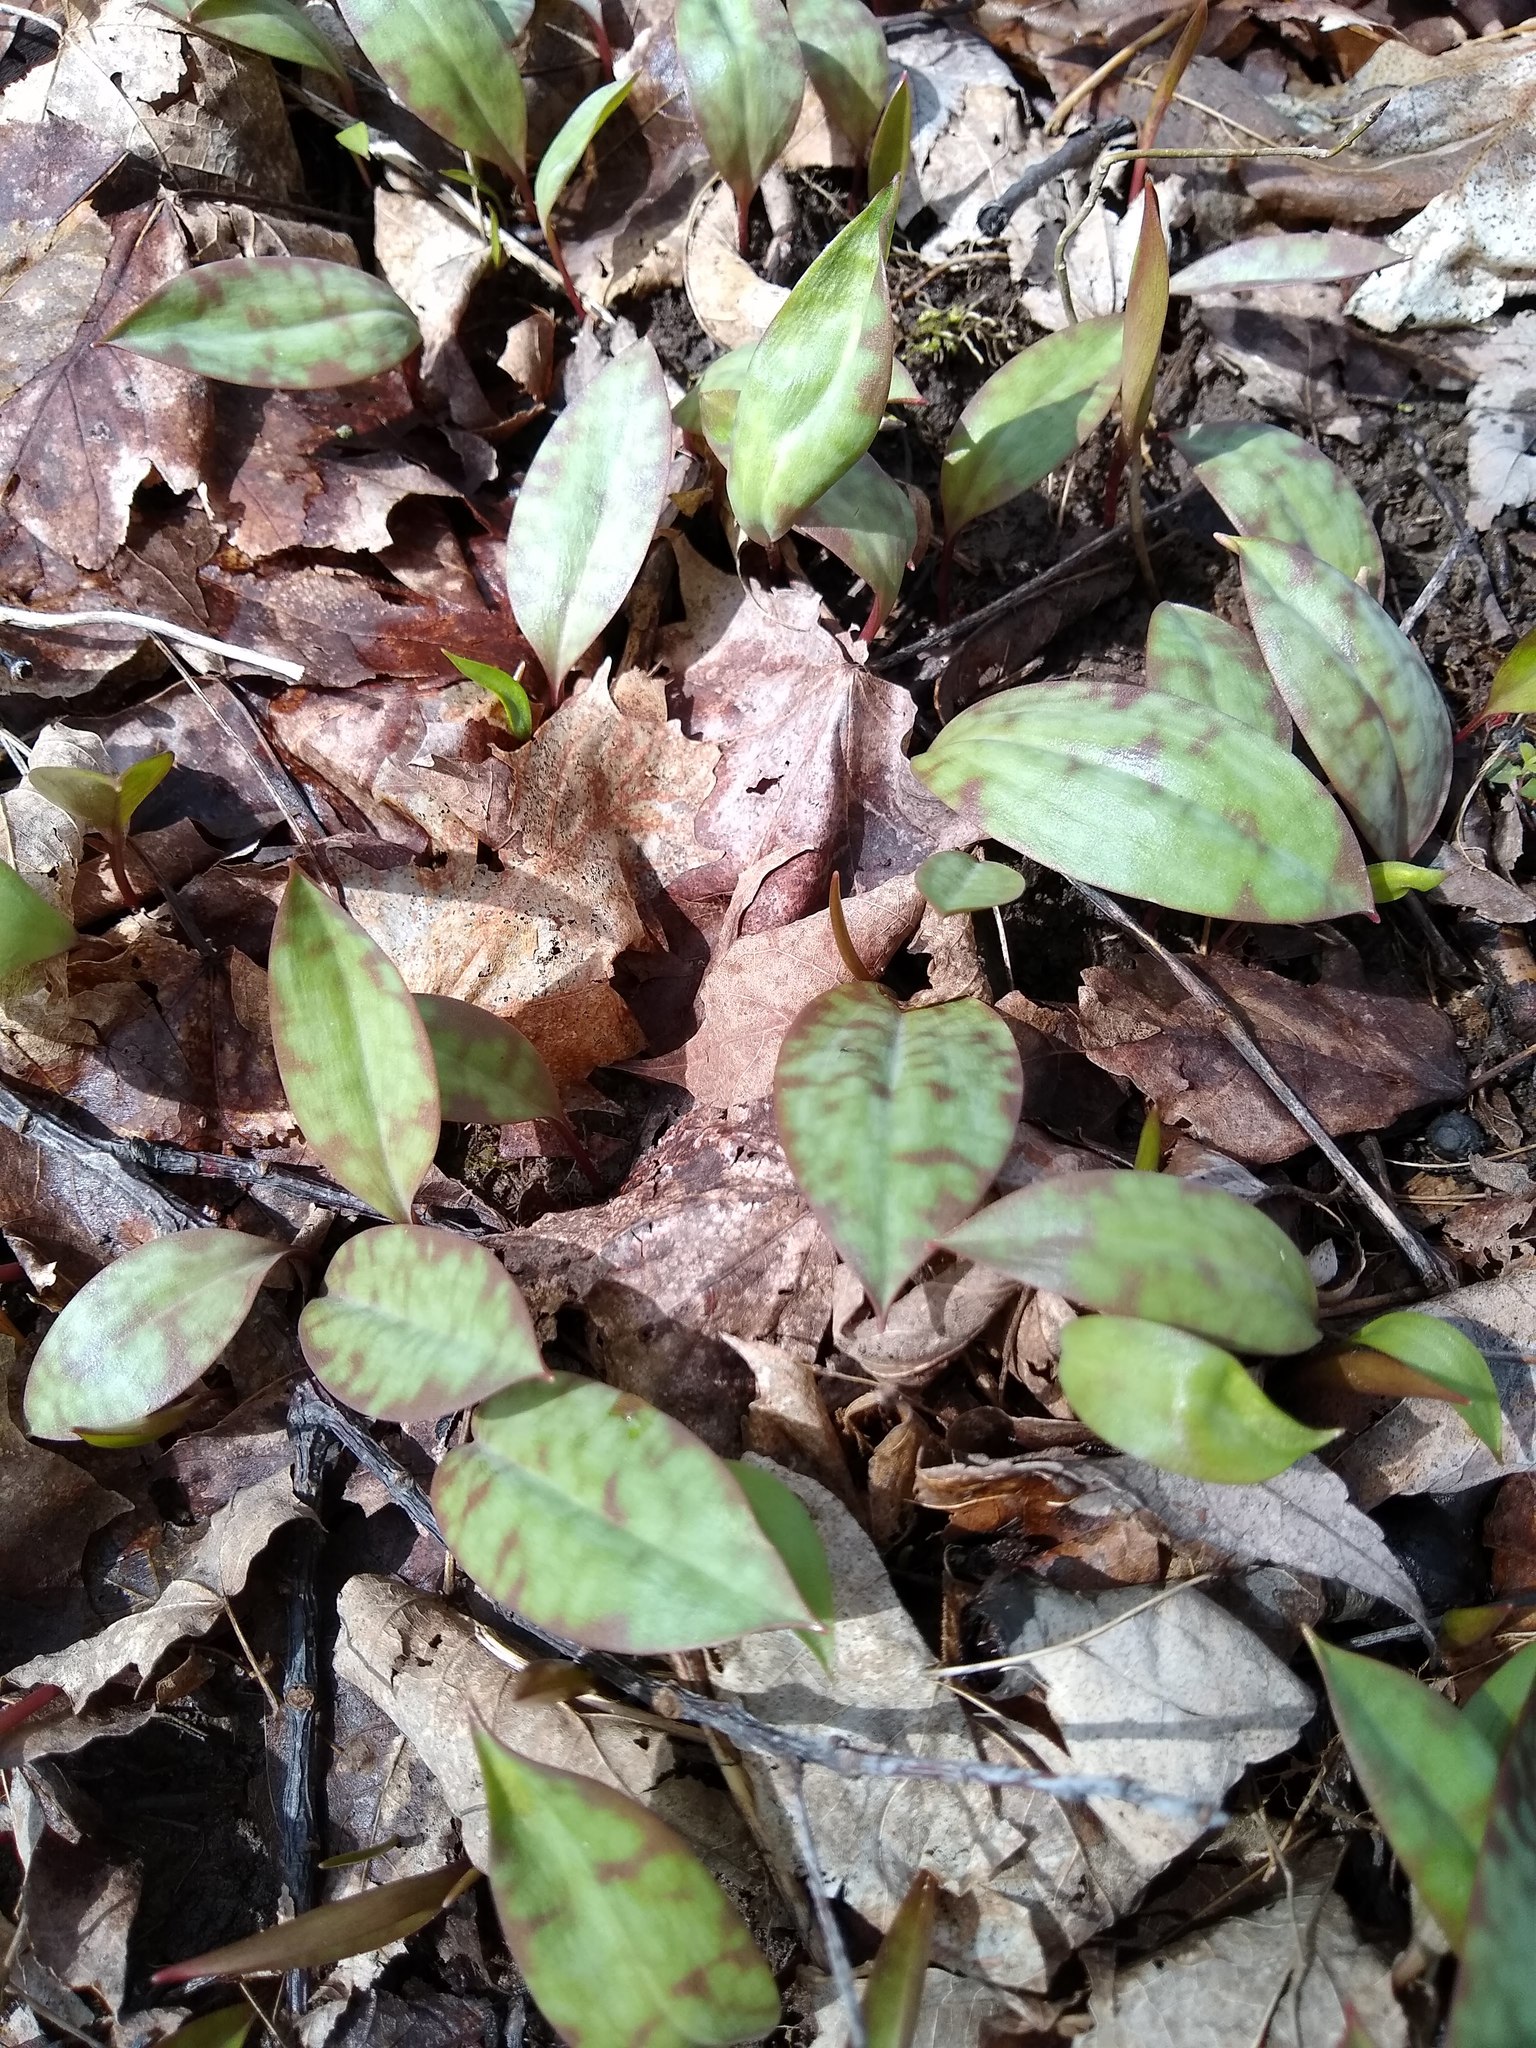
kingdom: Plantae
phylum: Tracheophyta
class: Liliopsida
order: Liliales
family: Liliaceae
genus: Erythronium
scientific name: Erythronium americanum
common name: Yellow adder's-tongue
